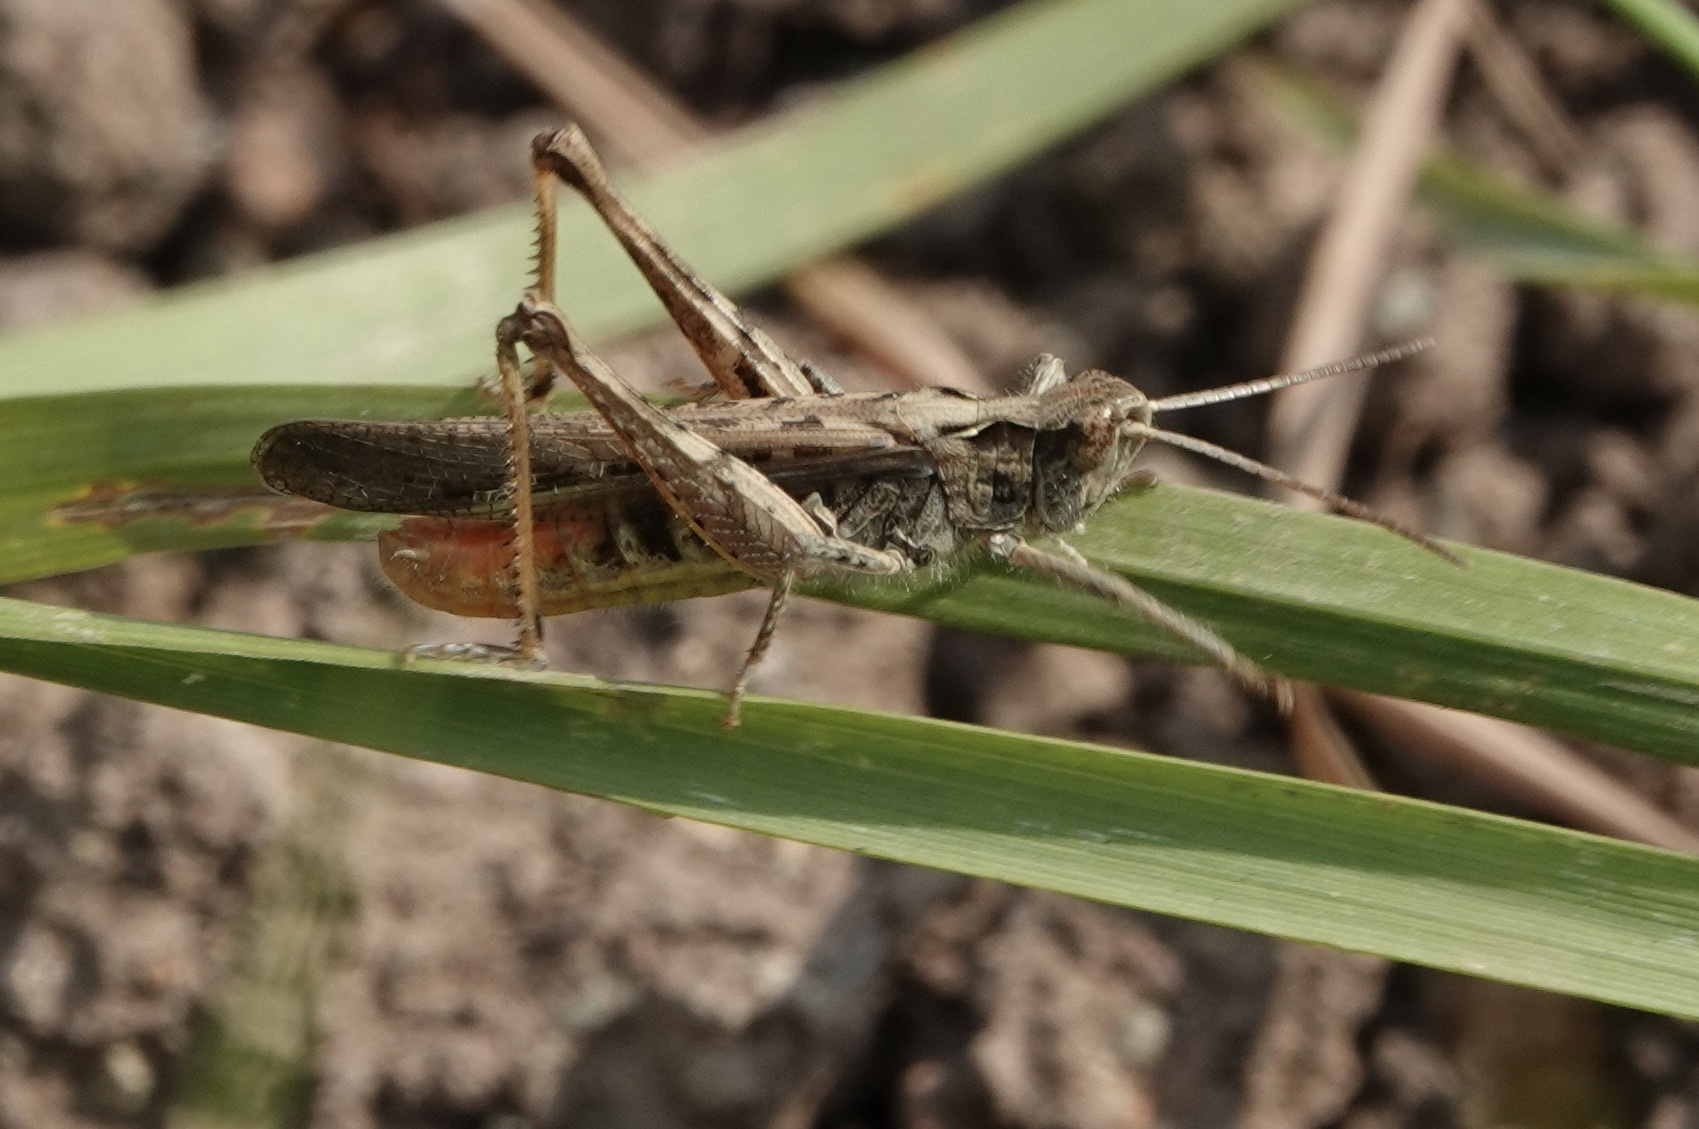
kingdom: Animalia
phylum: Arthropoda
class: Insecta
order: Orthoptera
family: Acrididae
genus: Chorthippus
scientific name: Chorthippus brunneus
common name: Field grasshopper
